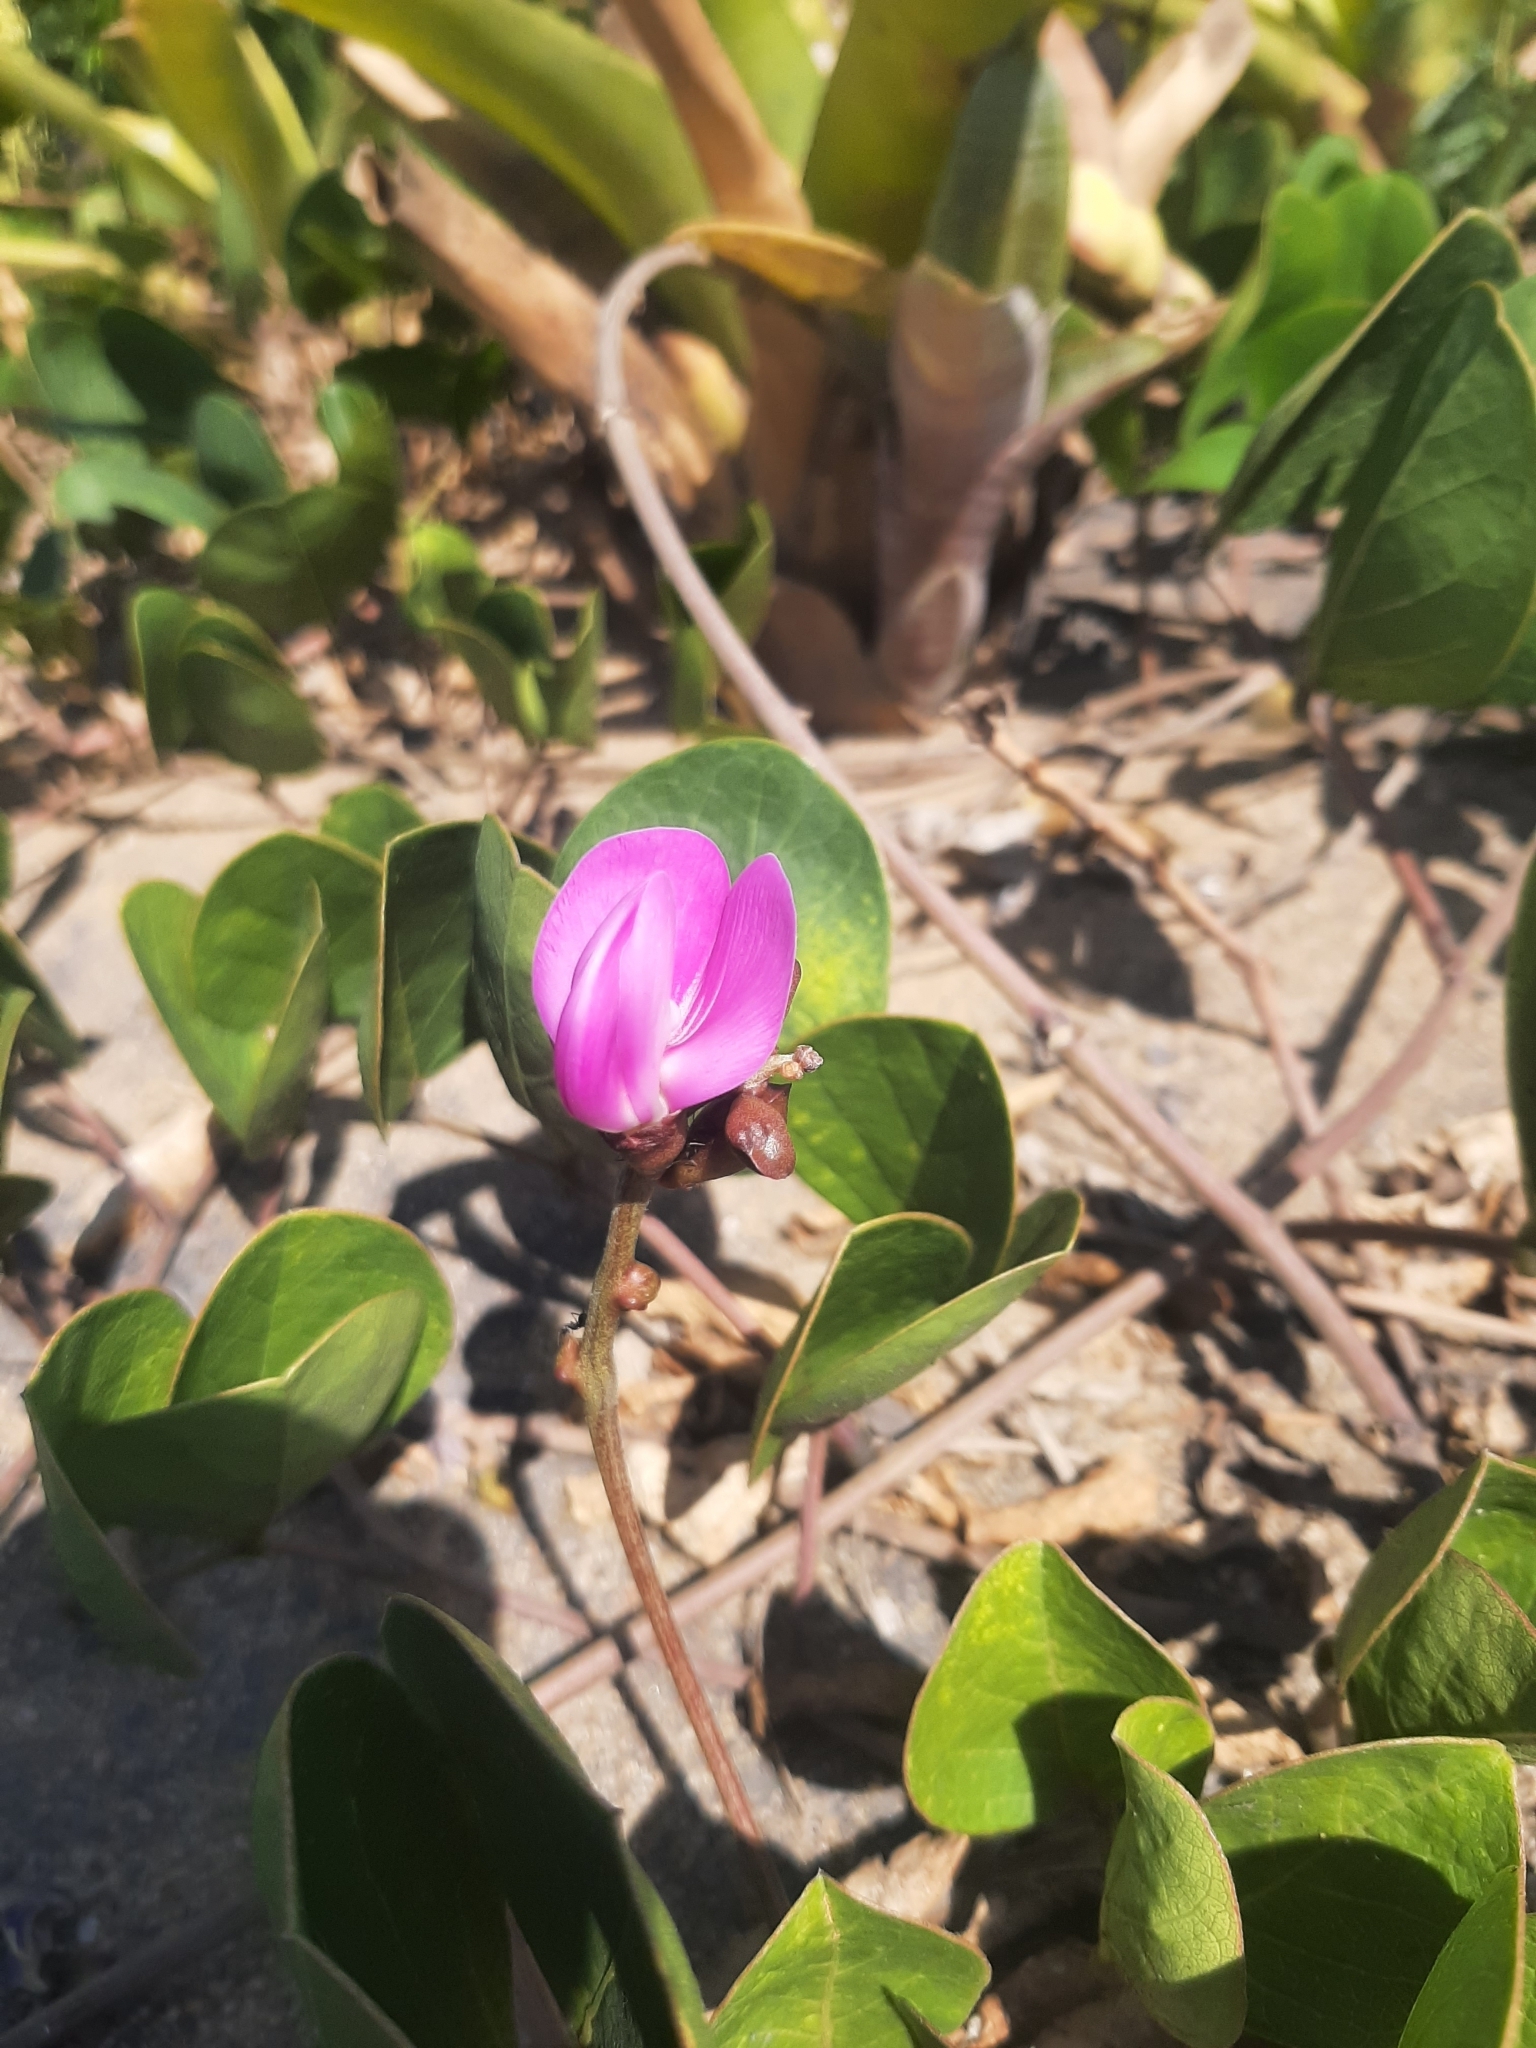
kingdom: Plantae
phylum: Tracheophyta
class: Magnoliopsida
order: Fabales
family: Fabaceae
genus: Canavalia
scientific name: Canavalia rosea
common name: Beach-bean
